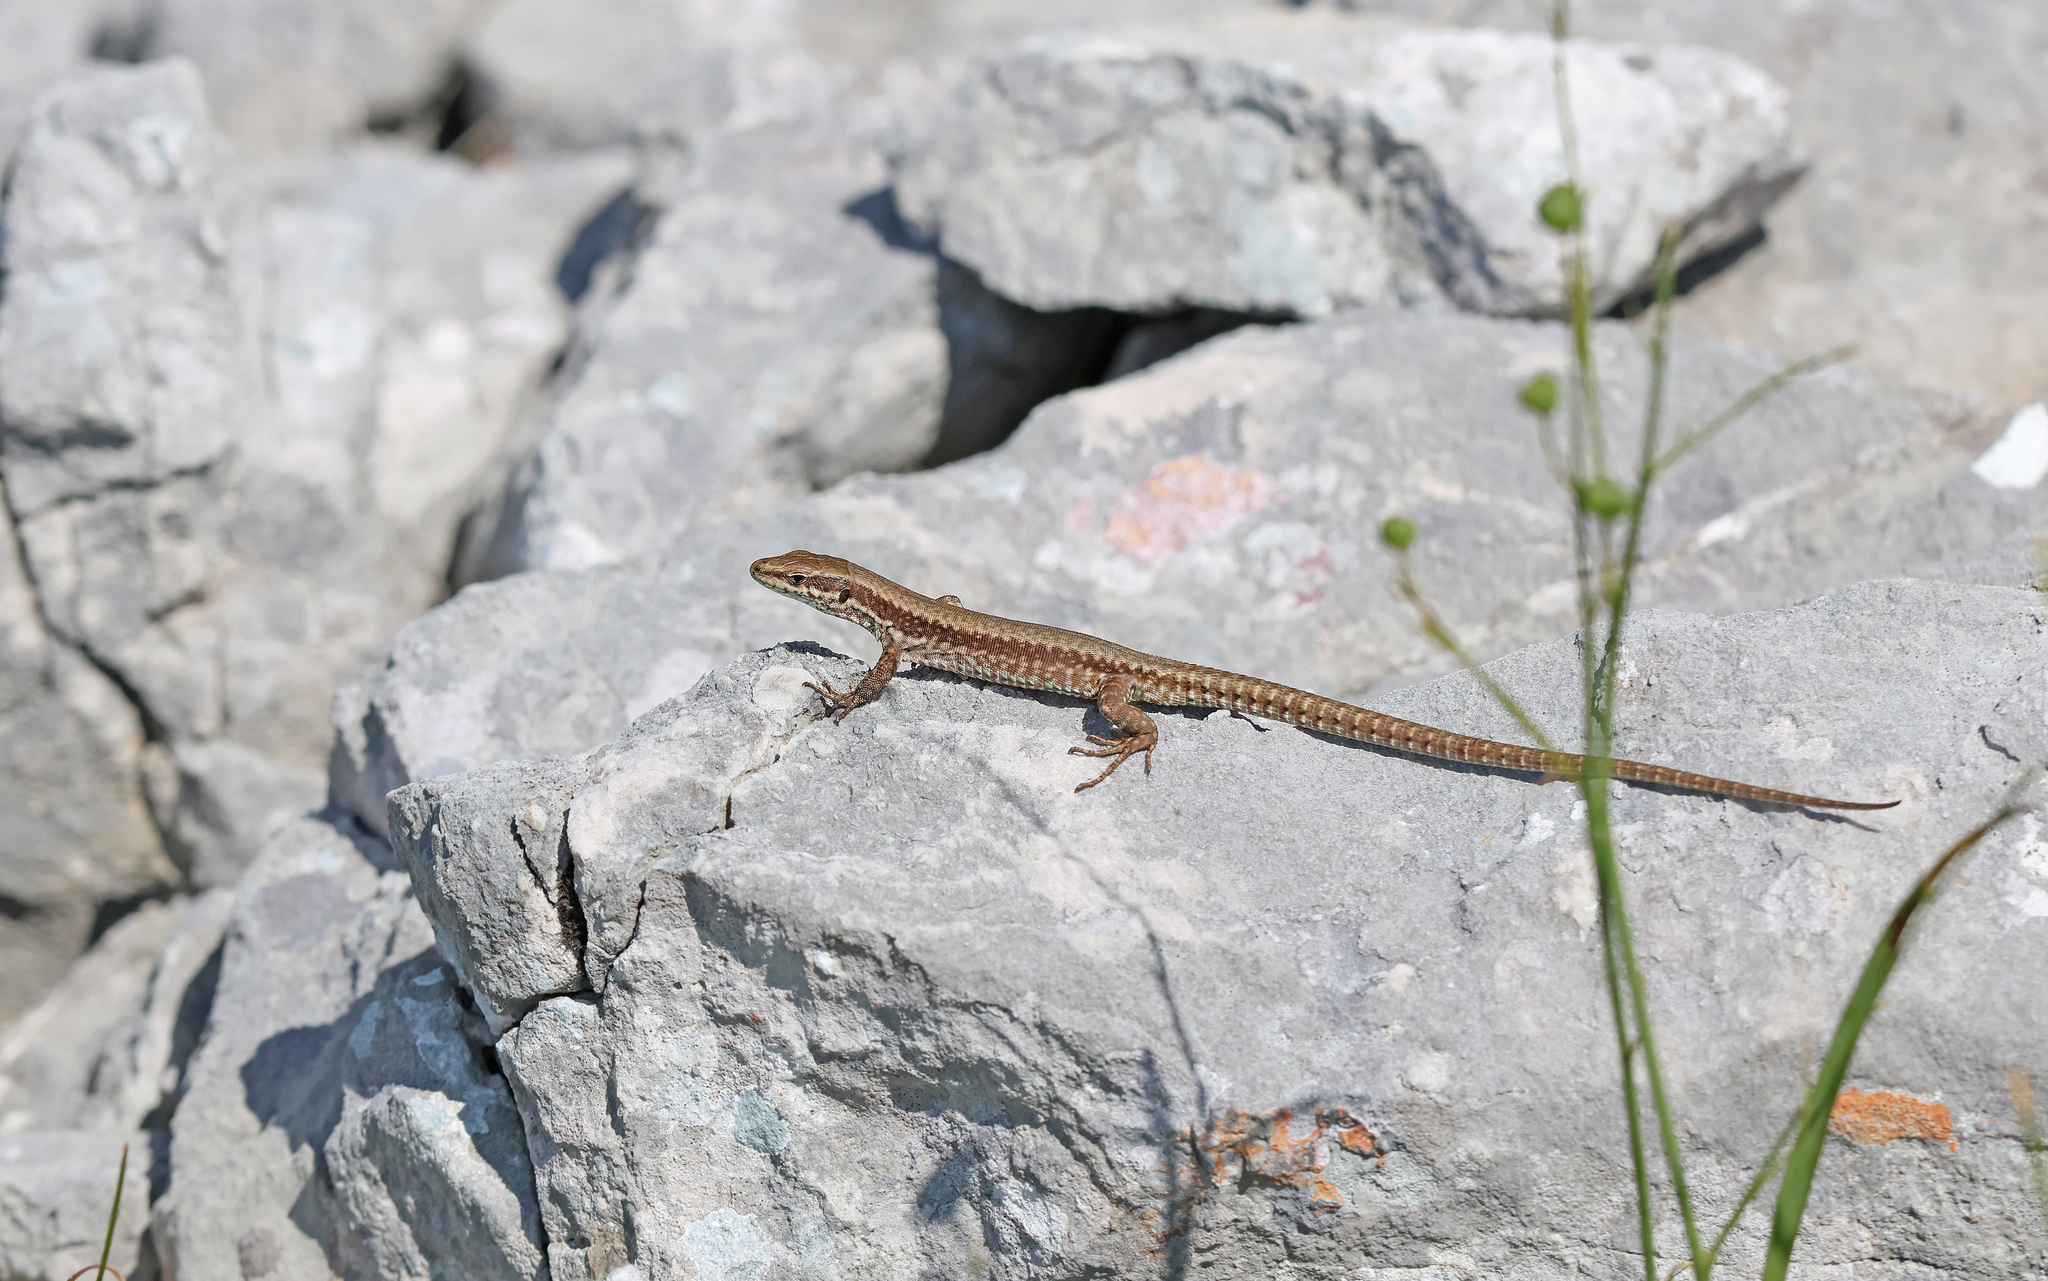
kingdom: Animalia
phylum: Chordata
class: Squamata
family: Lacertidae
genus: Podarcis
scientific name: Podarcis muralis
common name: Common wall lizard
